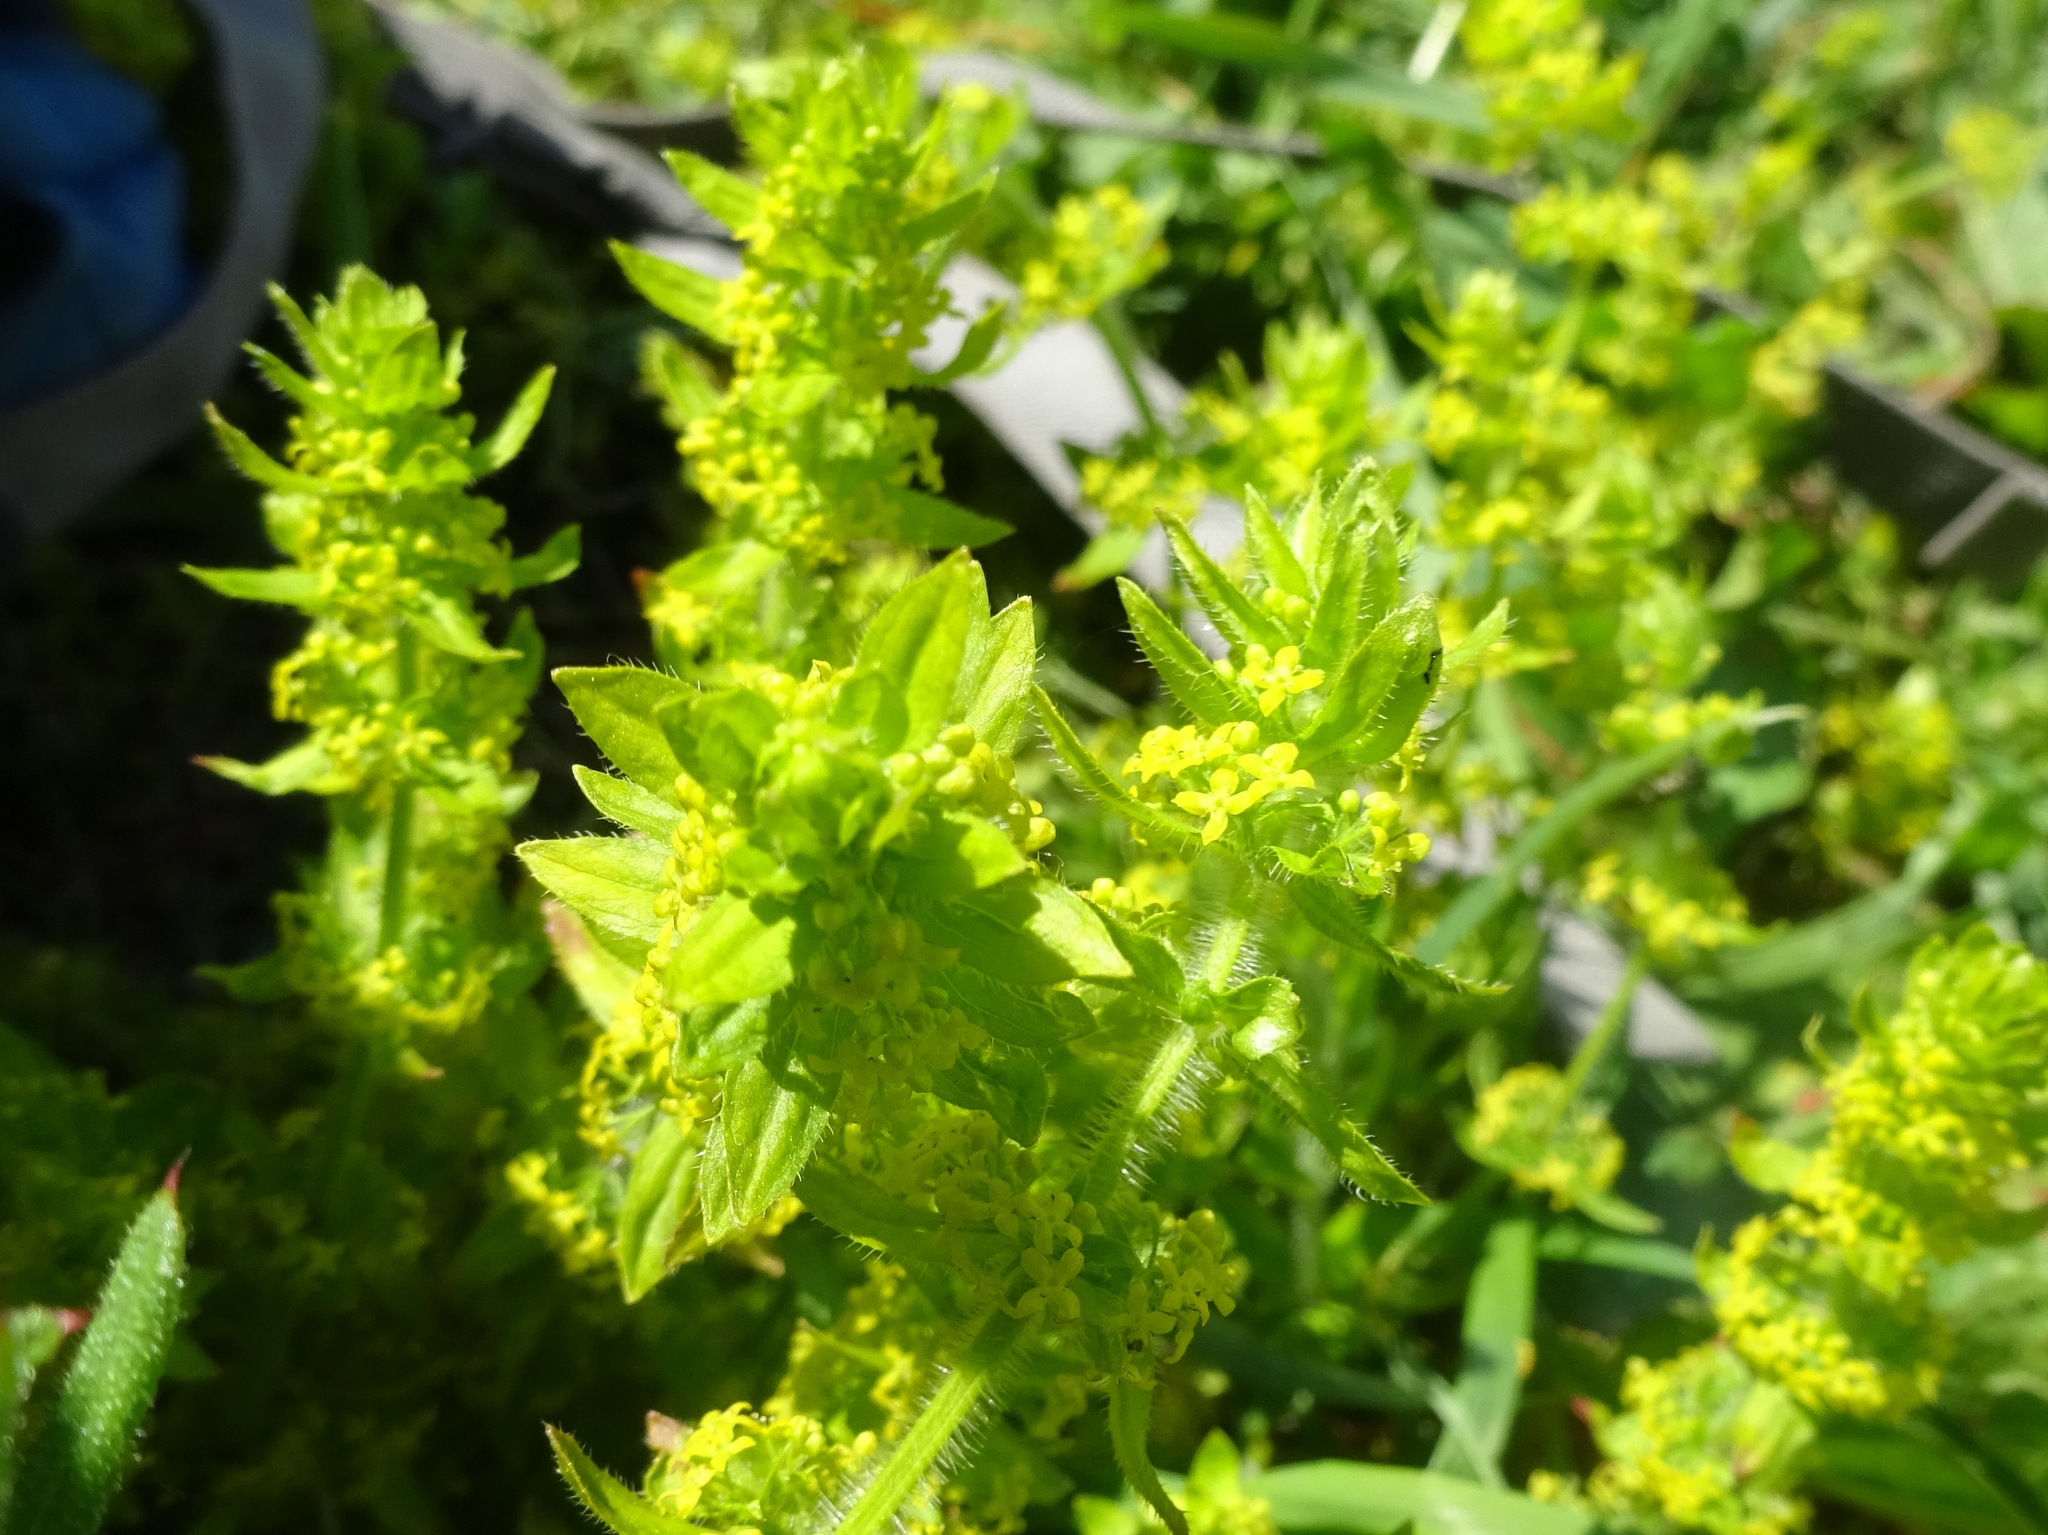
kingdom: Plantae
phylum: Tracheophyta
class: Magnoliopsida
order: Gentianales
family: Rubiaceae
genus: Cruciata
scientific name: Cruciata laevipes
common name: Crosswort
